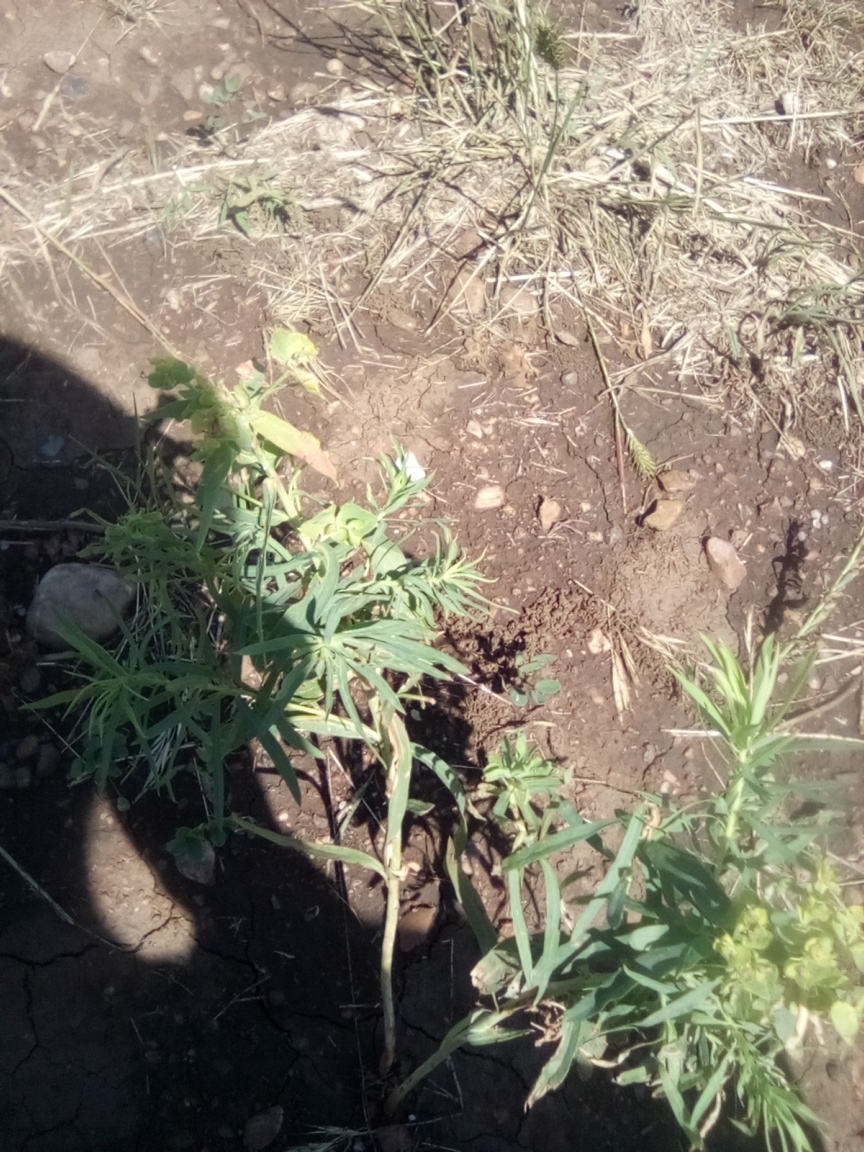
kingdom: Plantae
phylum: Tracheophyta
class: Magnoliopsida
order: Malpighiales
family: Euphorbiaceae
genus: Euphorbia
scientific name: Euphorbia virgata
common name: Leafy spurge
